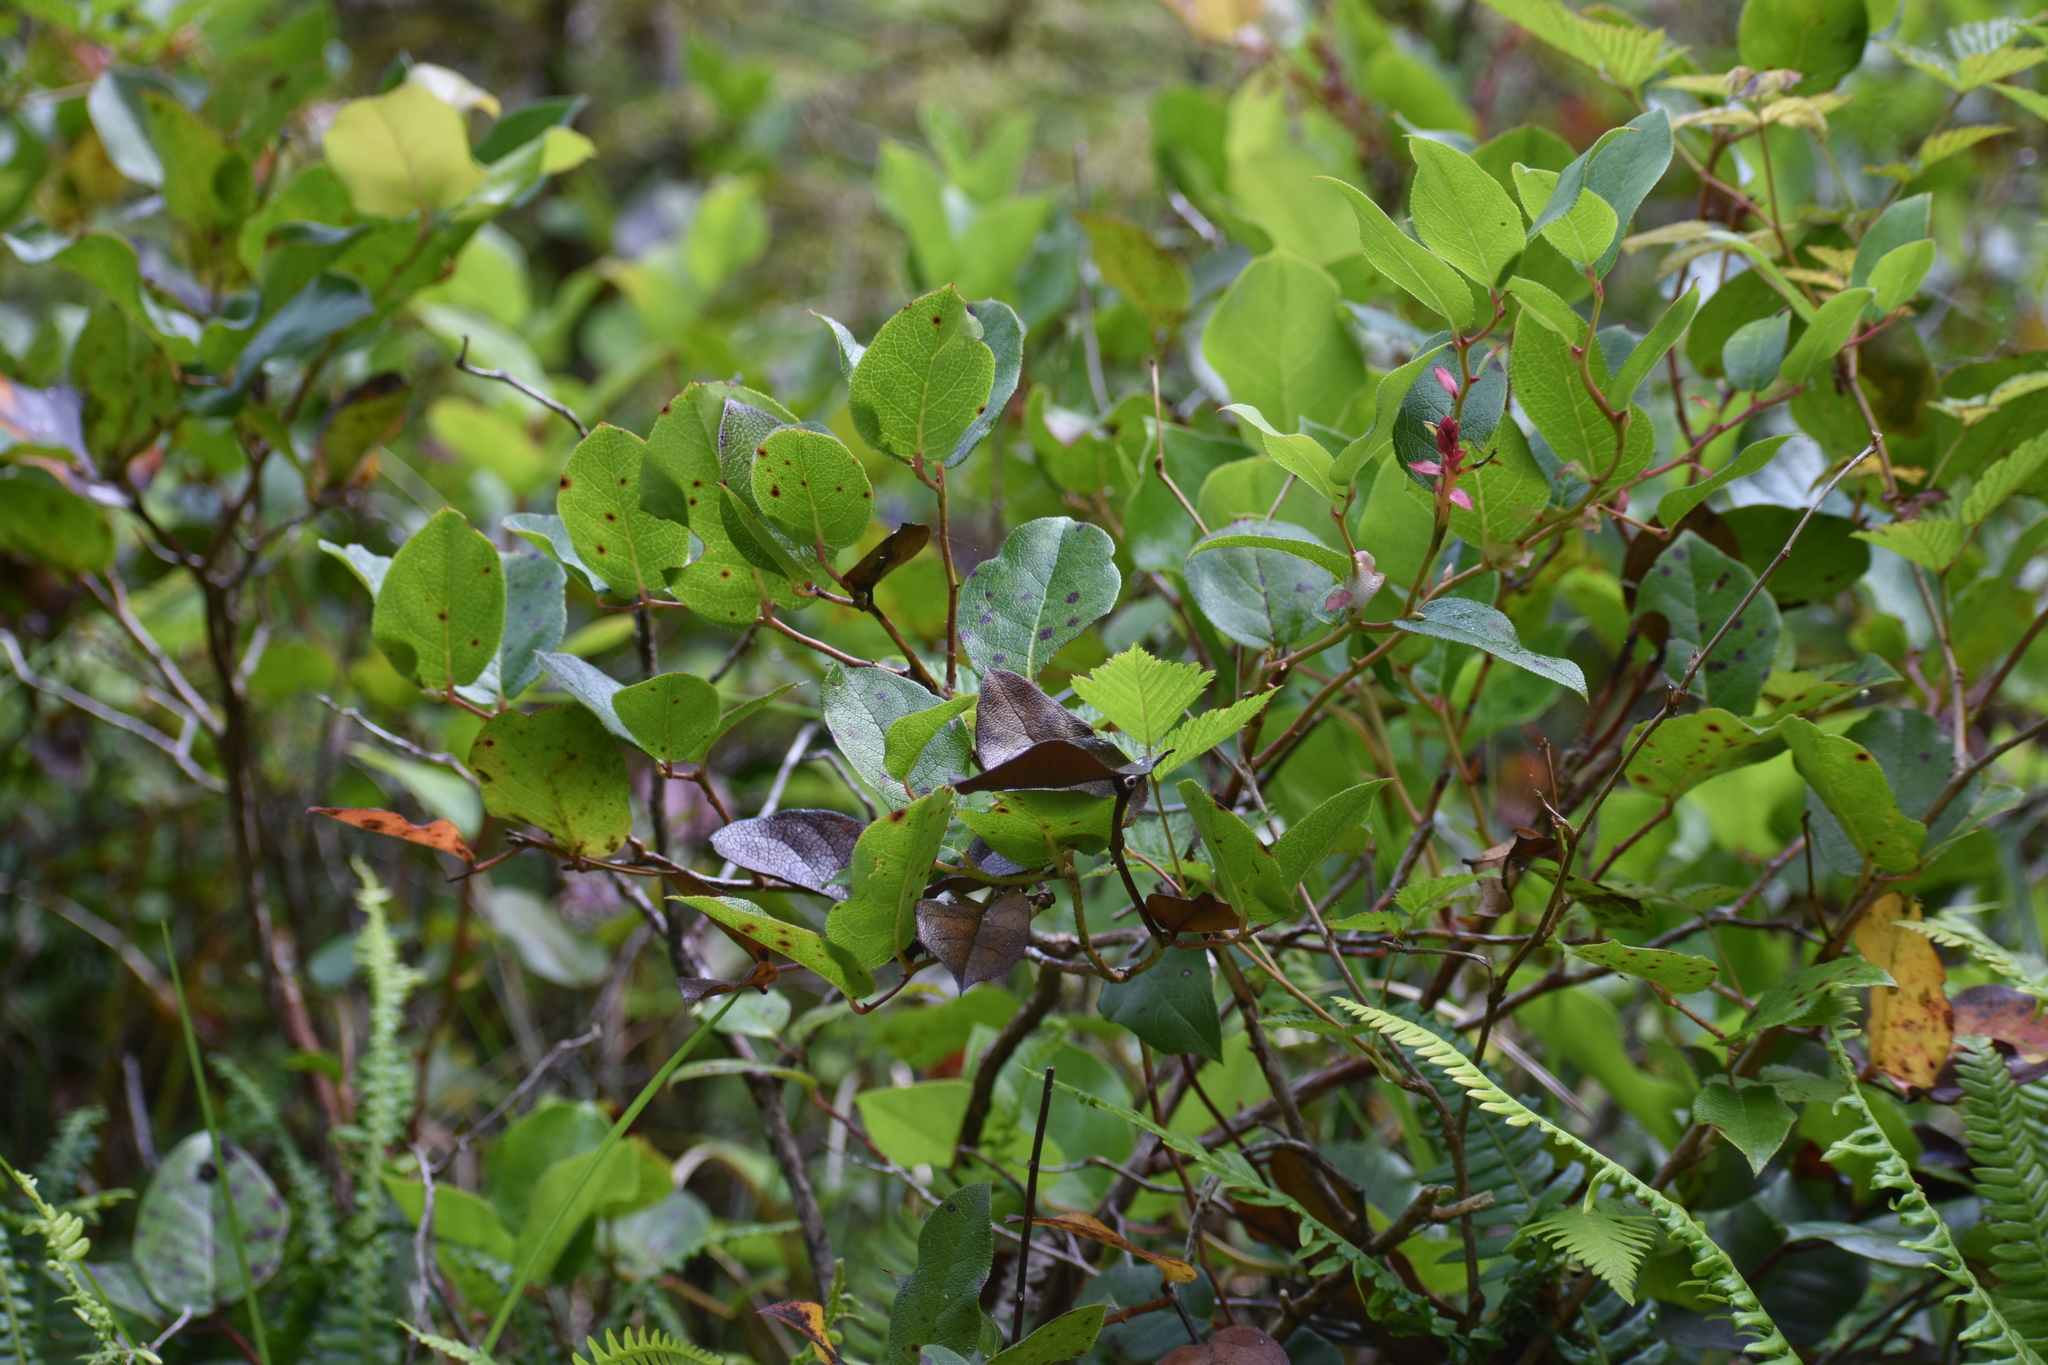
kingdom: Plantae
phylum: Tracheophyta
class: Magnoliopsida
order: Ericales
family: Ericaceae
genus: Gaultheria
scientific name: Gaultheria shallon
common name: Shallon
